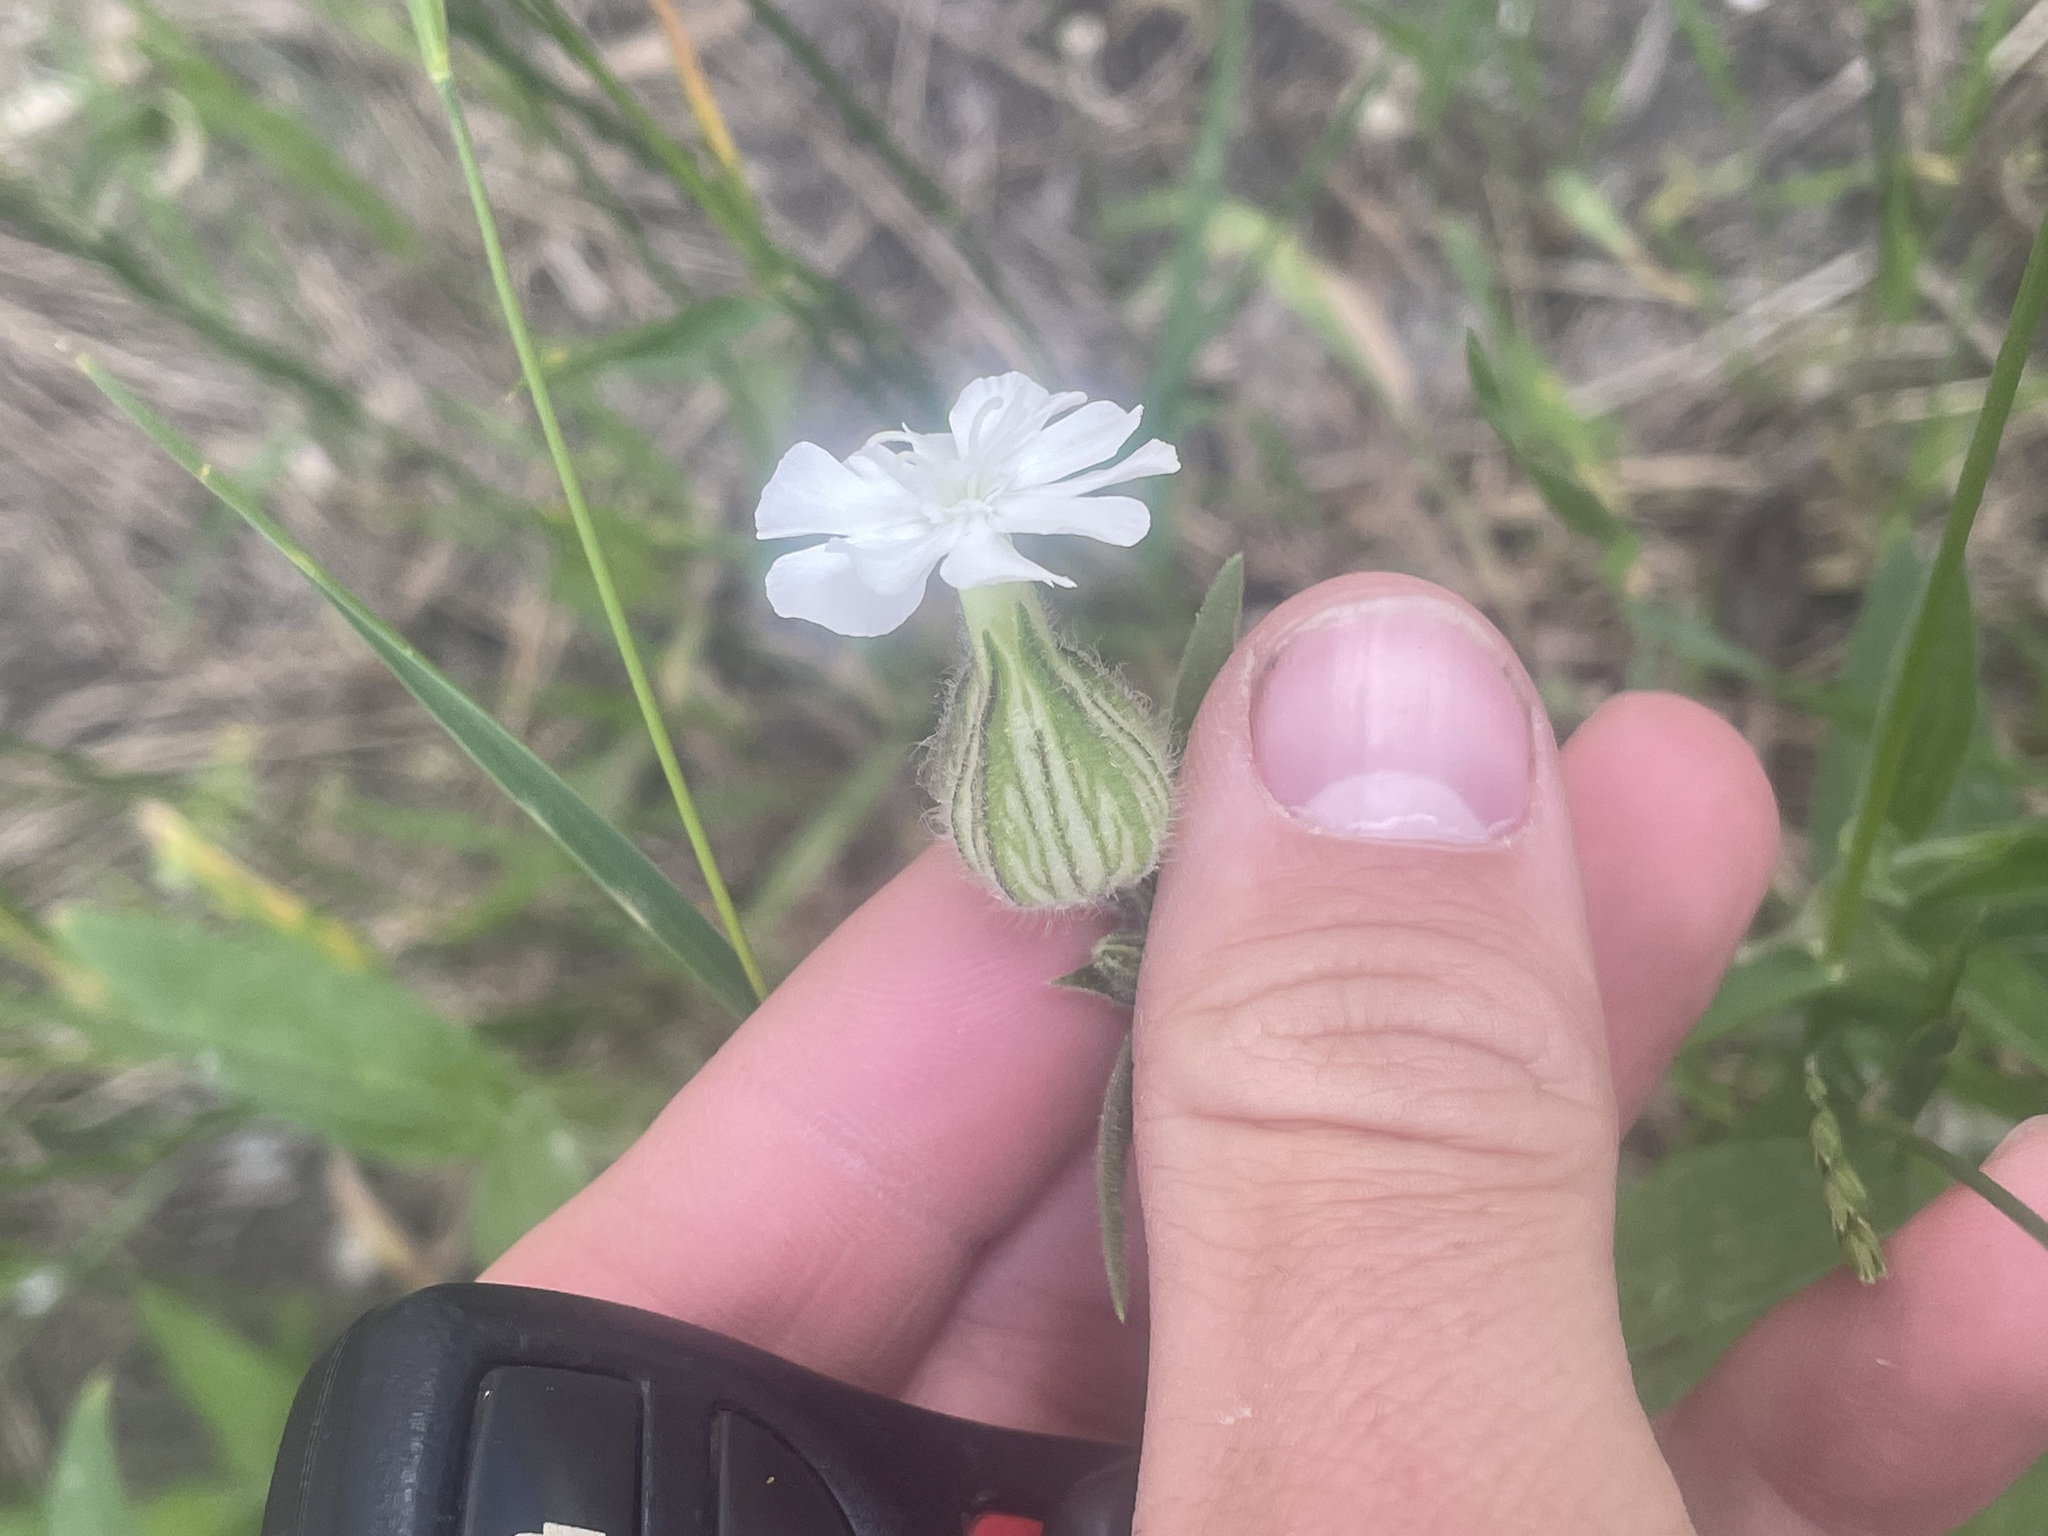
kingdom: Plantae
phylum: Tracheophyta
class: Magnoliopsida
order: Caryophyllales
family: Caryophyllaceae
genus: Silene
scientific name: Silene latifolia
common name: White campion
